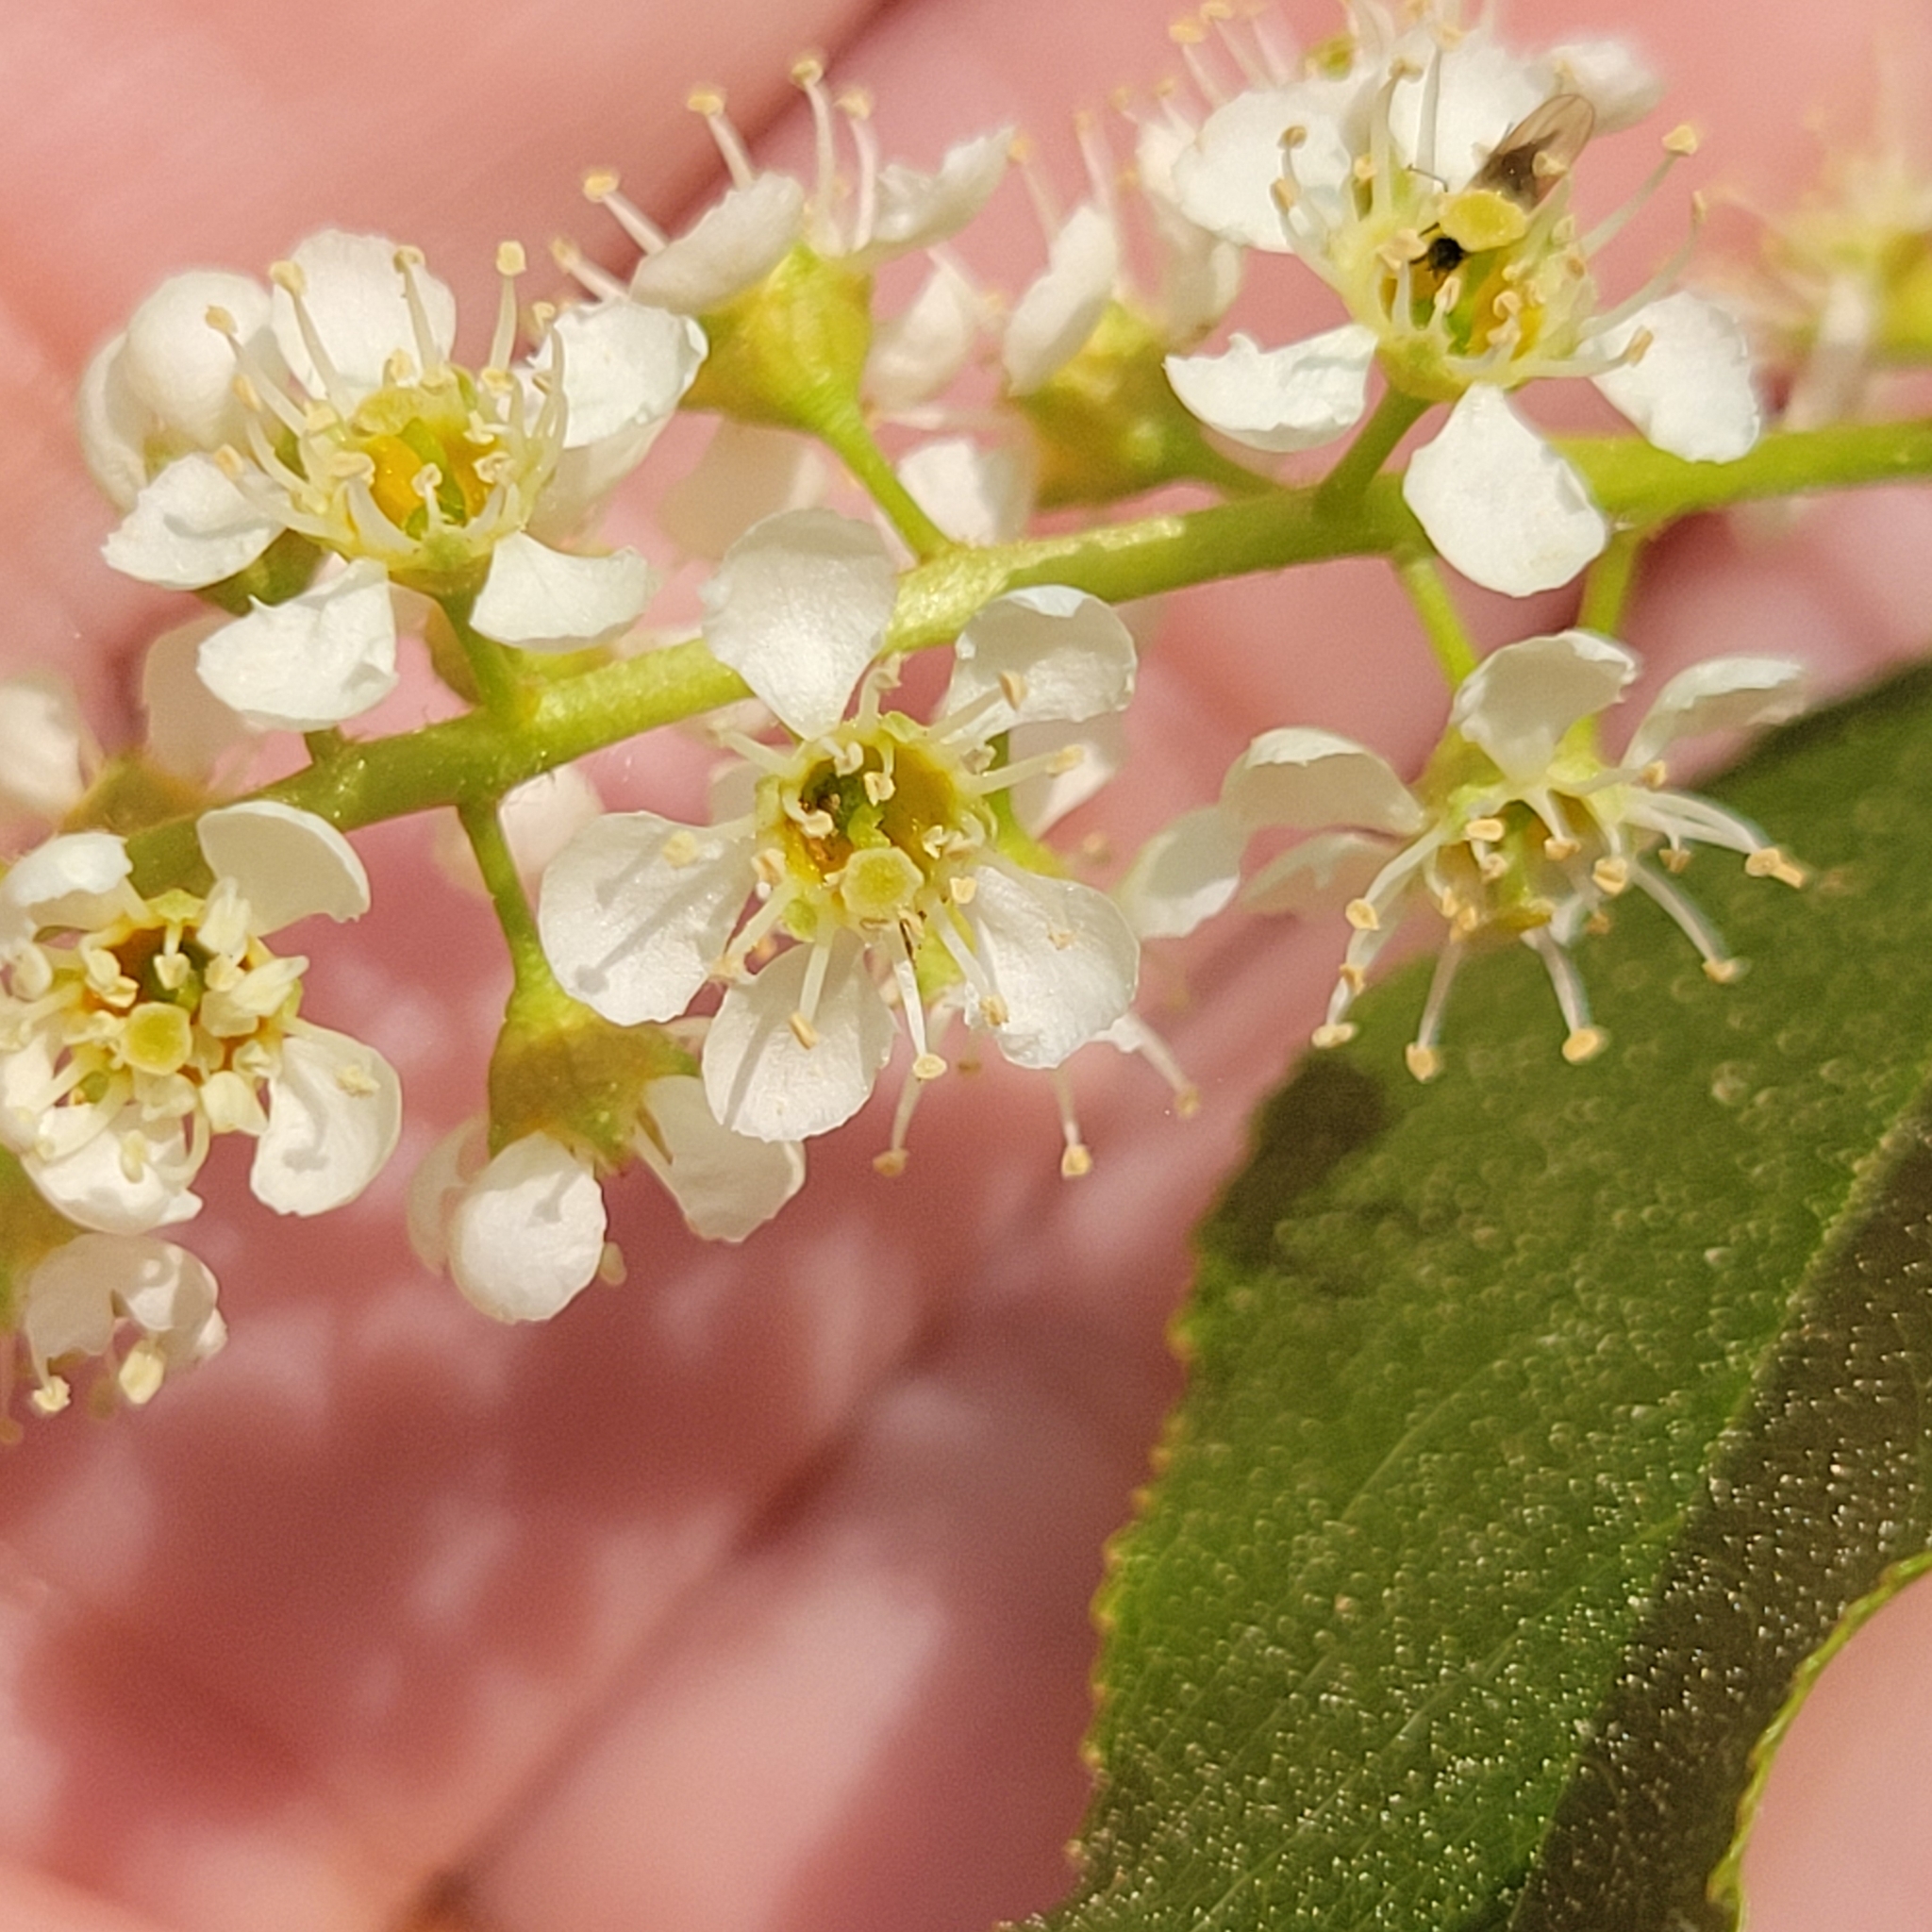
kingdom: Plantae
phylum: Tracheophyta
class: Magnoliopsida
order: Rosales
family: Rosaceae
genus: Prunus
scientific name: Prunus serotina
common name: Black cherry
